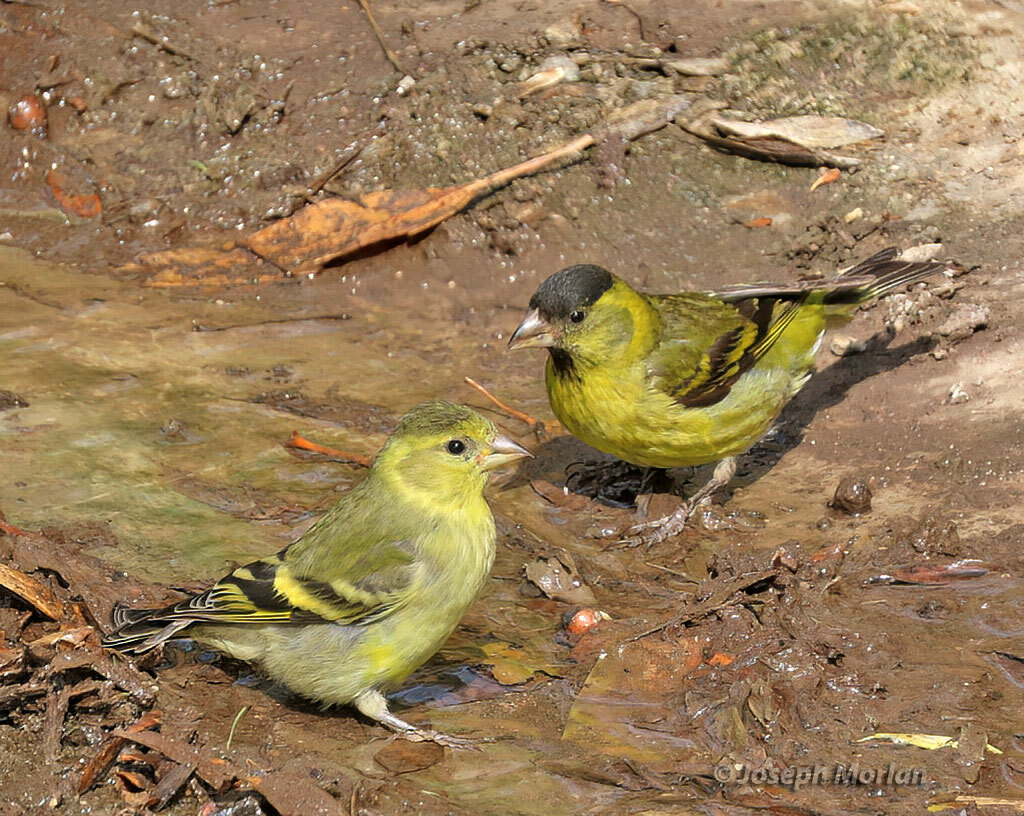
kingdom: Animalia
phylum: Chordata
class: Aves
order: Passeriformes
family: Fringillidae
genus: Spinus
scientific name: Spinus barbatus
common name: Black-chinned siskin
